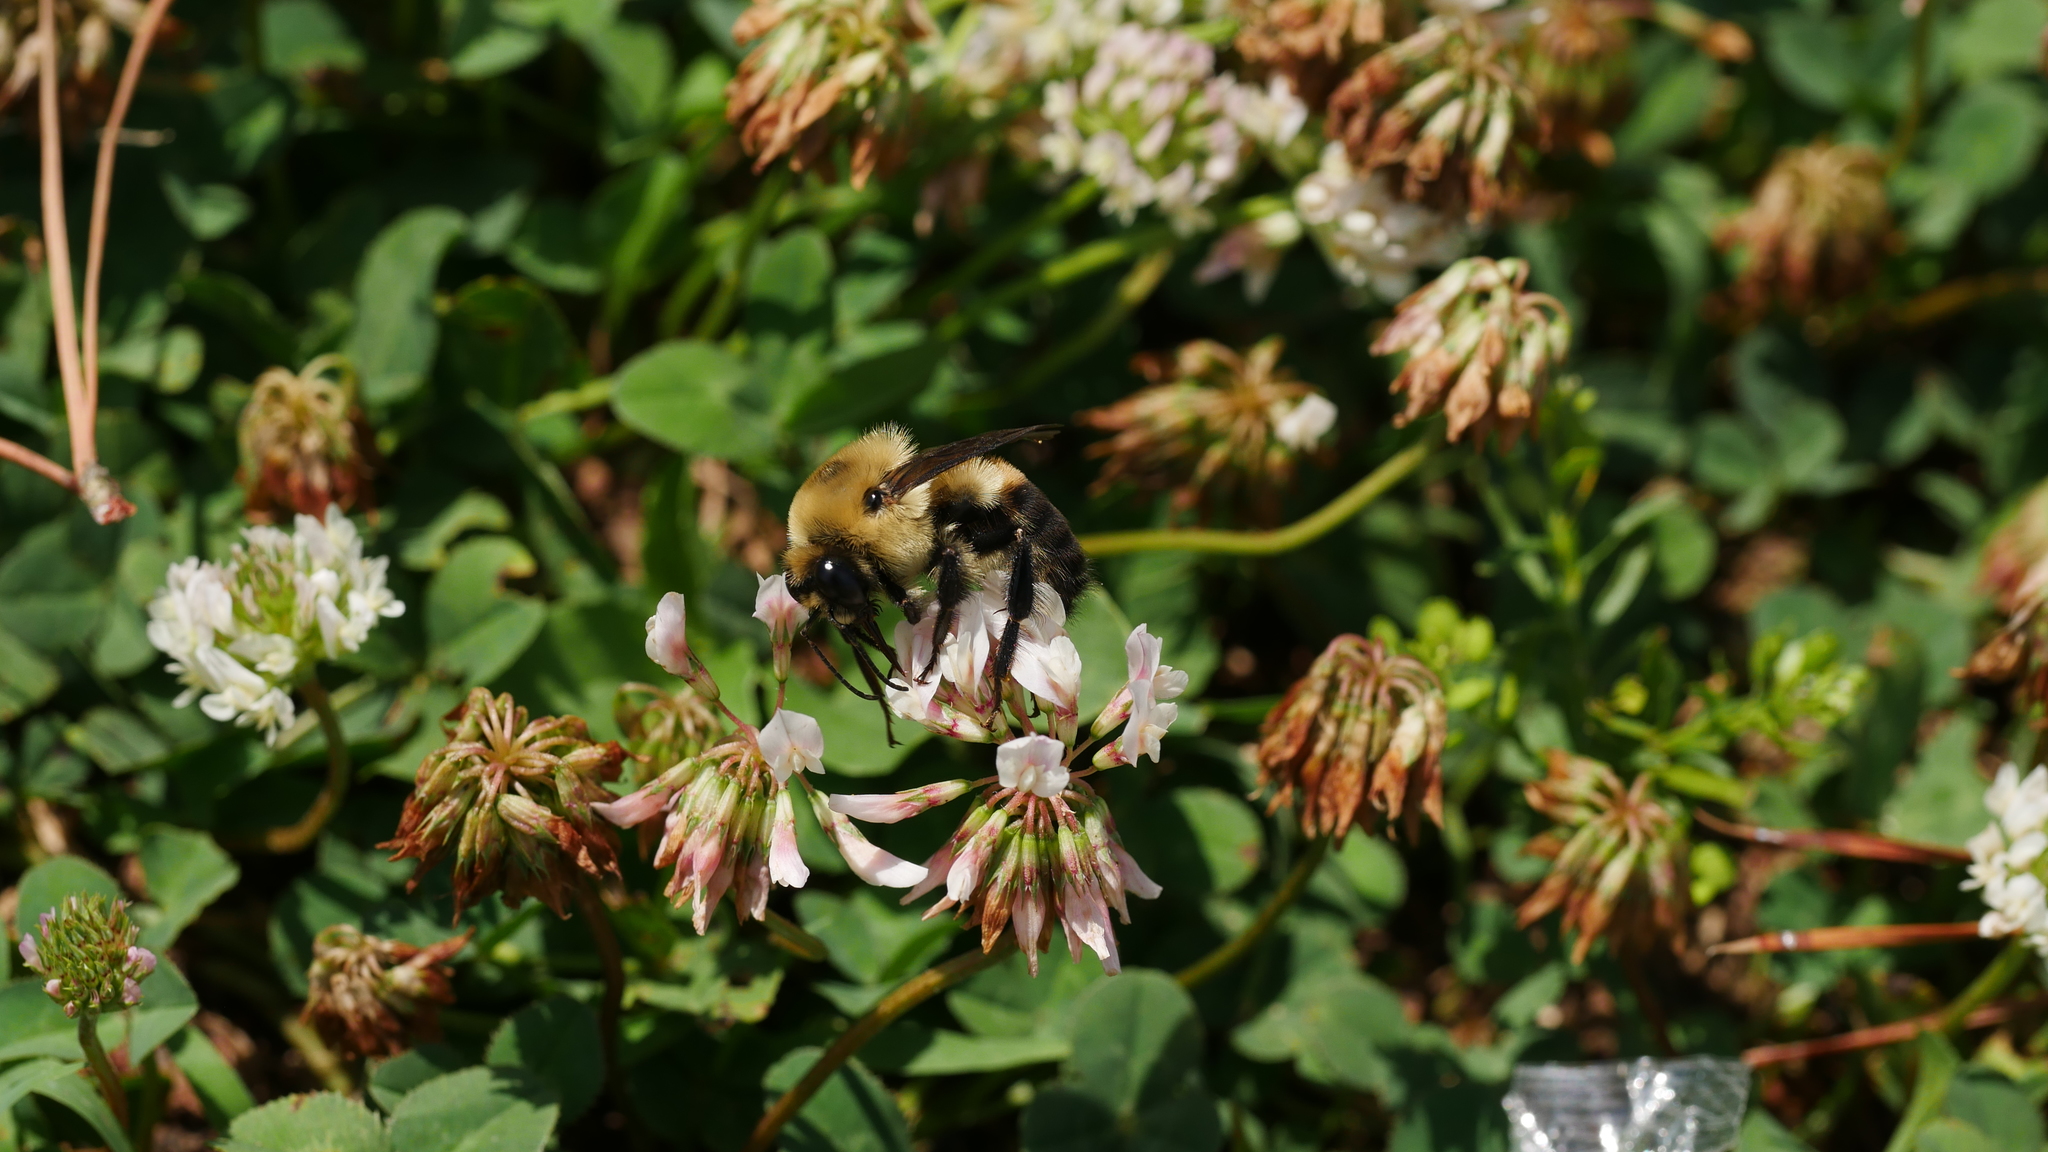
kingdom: Animalia
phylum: Arthropoda
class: Insecta
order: Hymenoptera
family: Apidae
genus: Bombus
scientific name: Bombus griseocollis
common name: Brown-belted bumble bee
